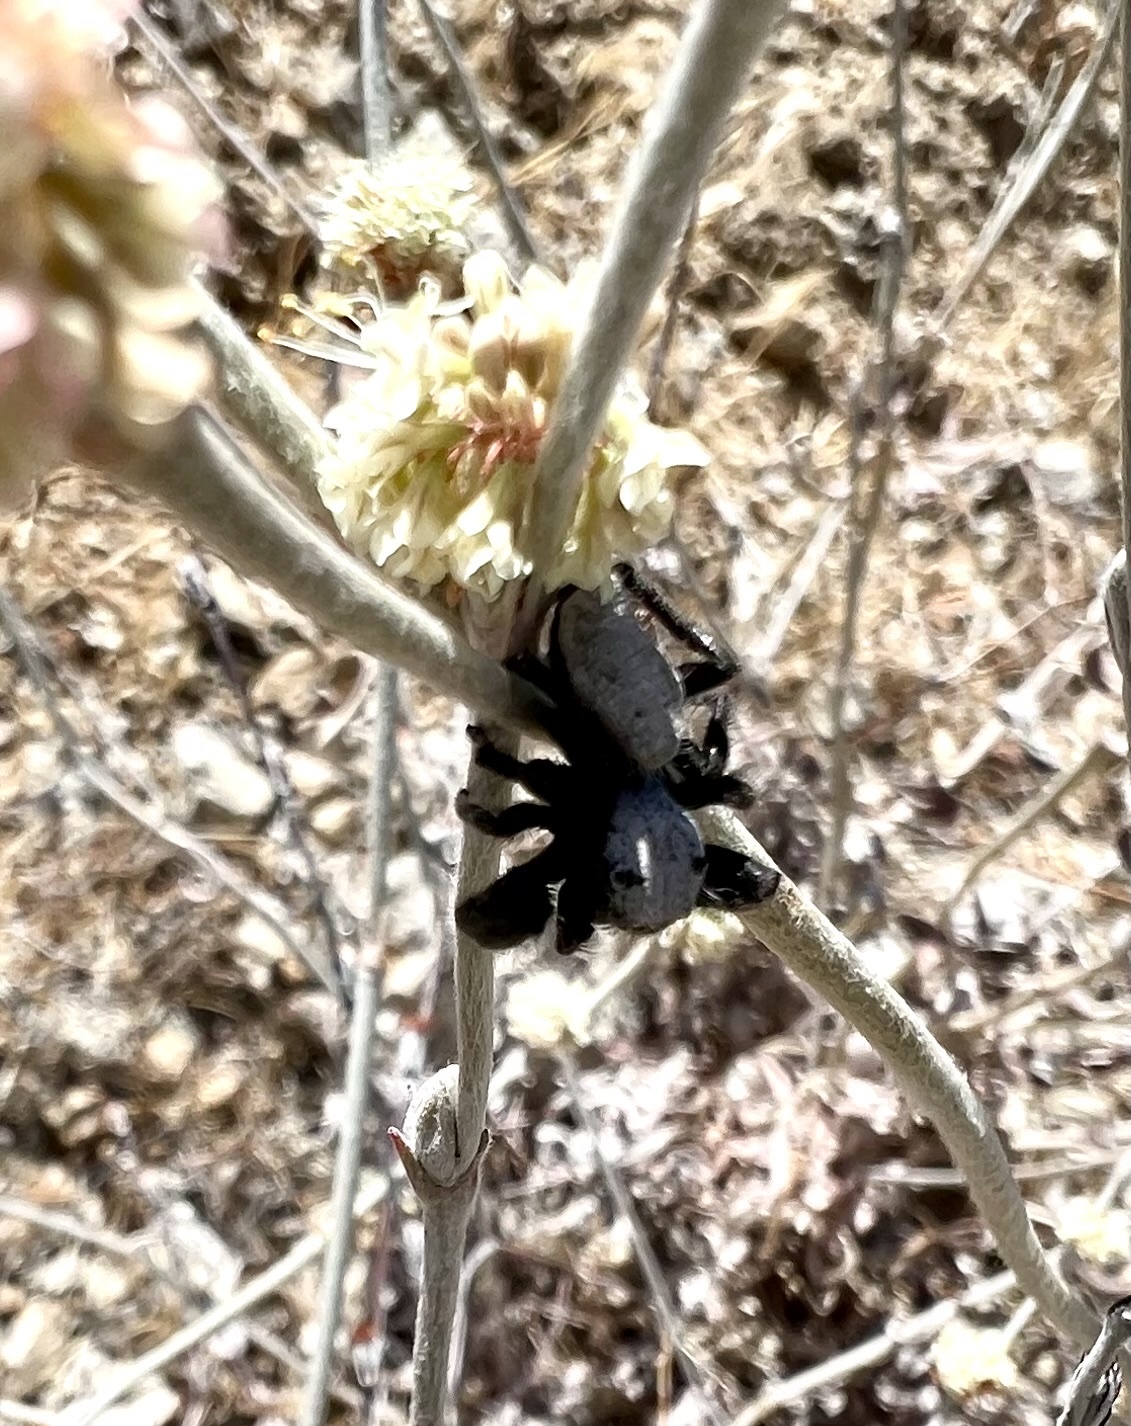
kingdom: Animalia
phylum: Arthropoda
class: Arachnida
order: Araneae
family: Salticidae
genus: Phidippus
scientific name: Phidippus octopunctatus
